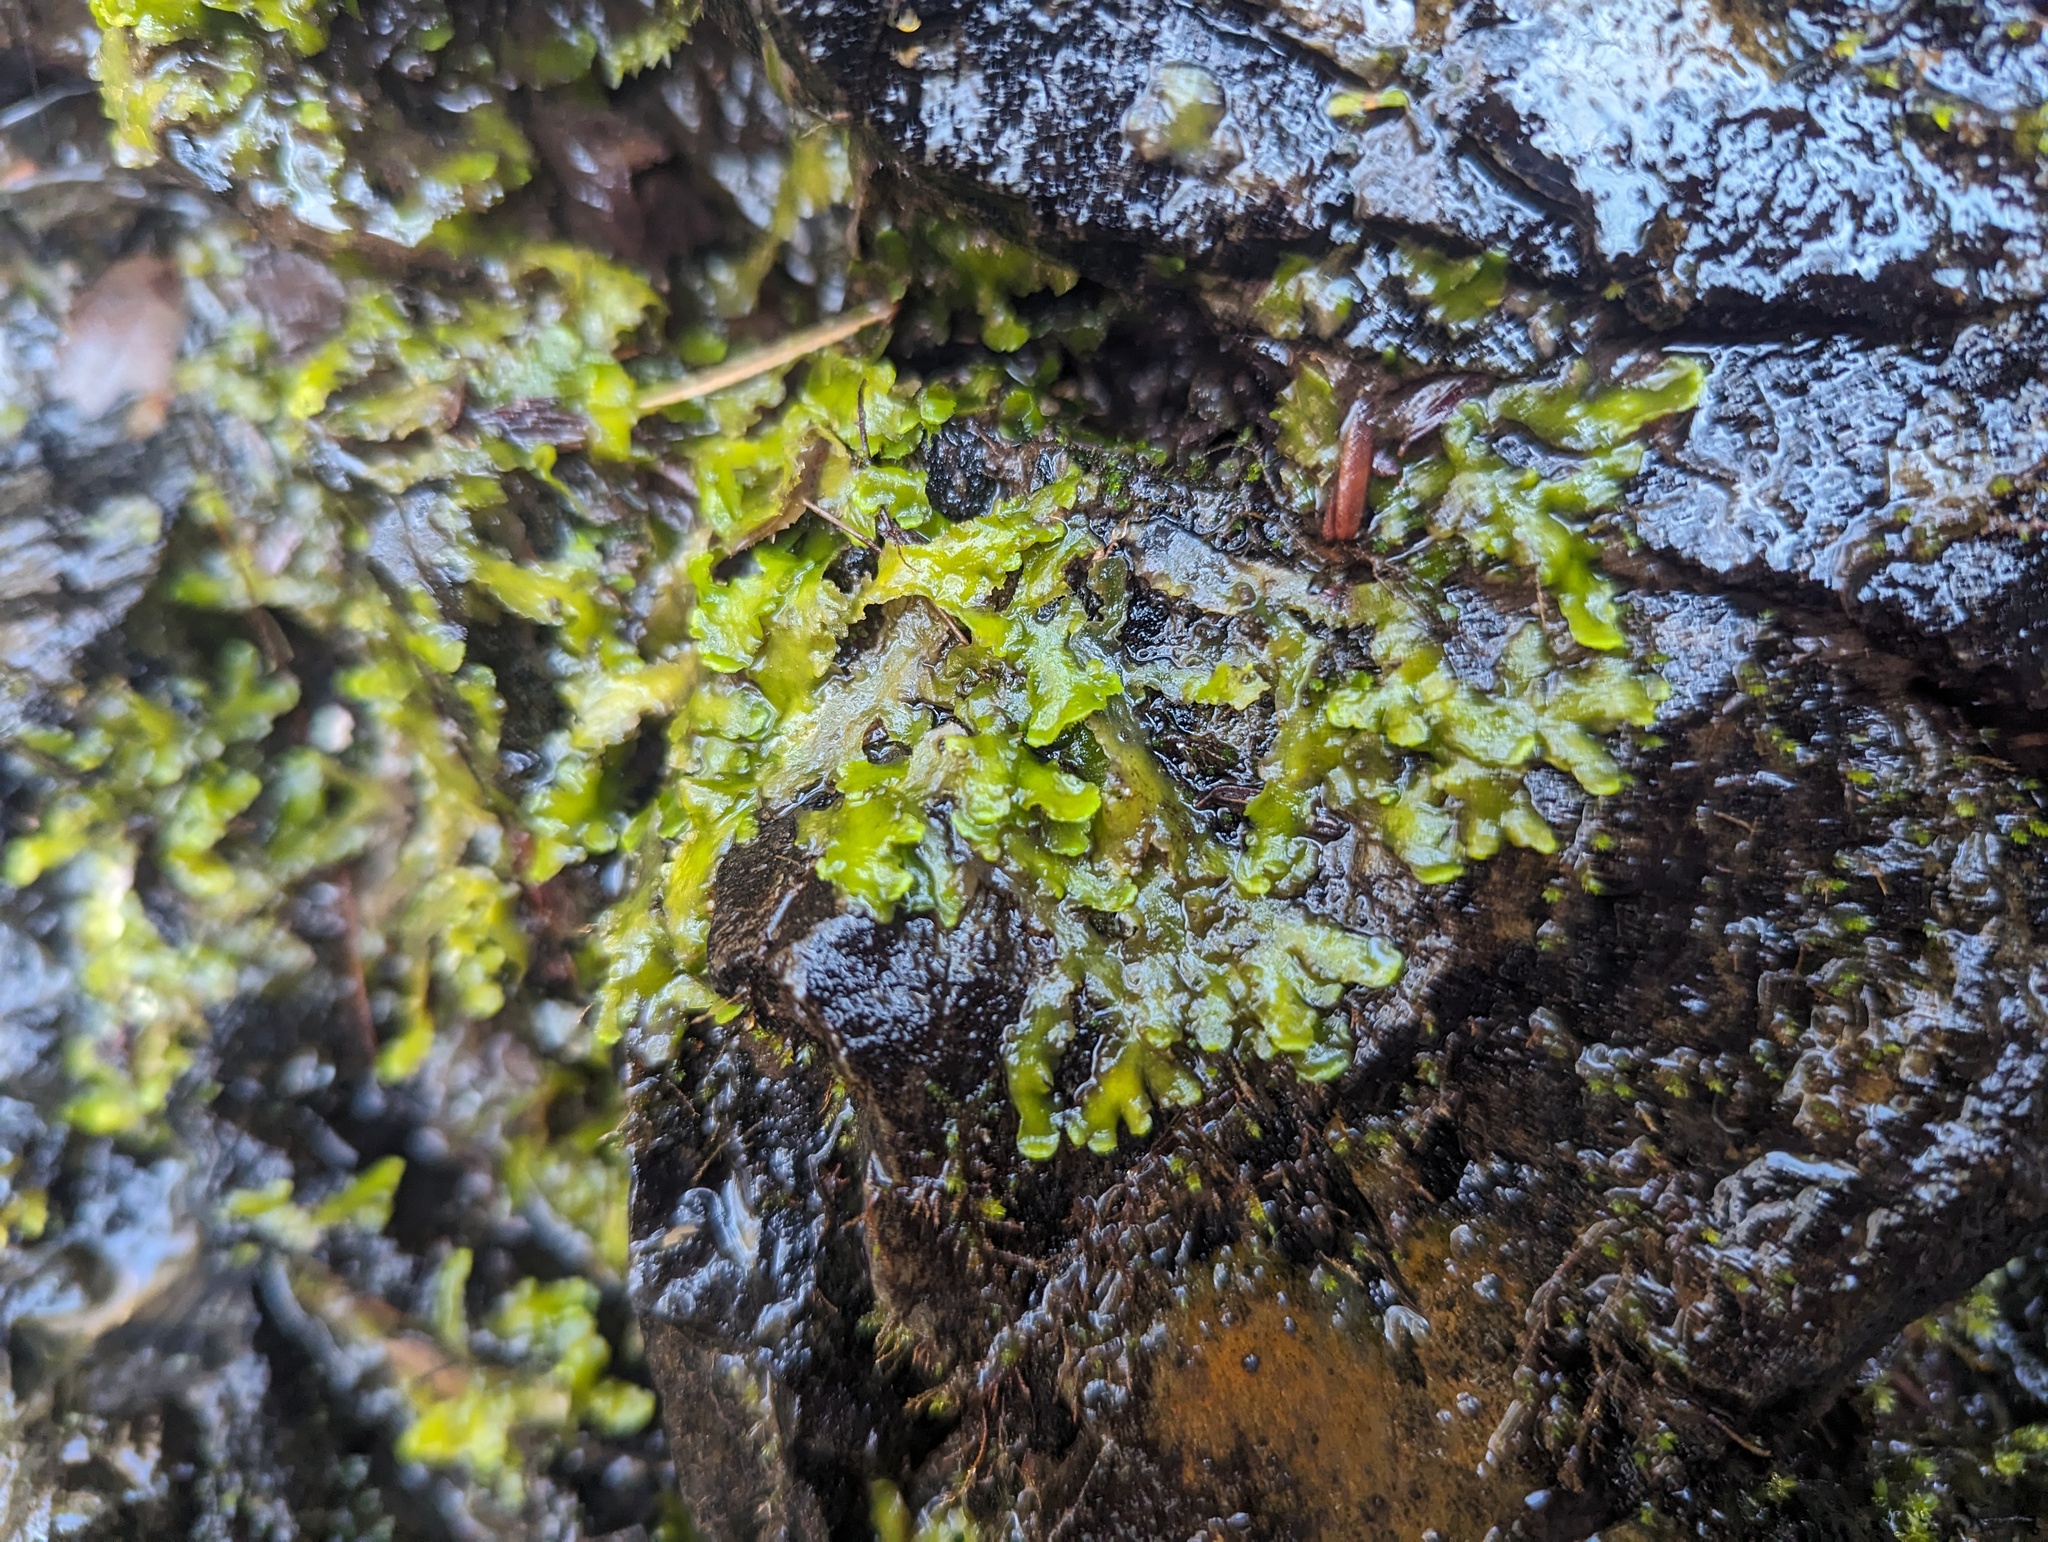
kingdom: Plantae
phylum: Marchantiophyta
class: Jungermanniopsida
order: Metzgeriales
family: Aneuraceae
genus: Aneura
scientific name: Aneura pinguis
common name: Common greasewort
